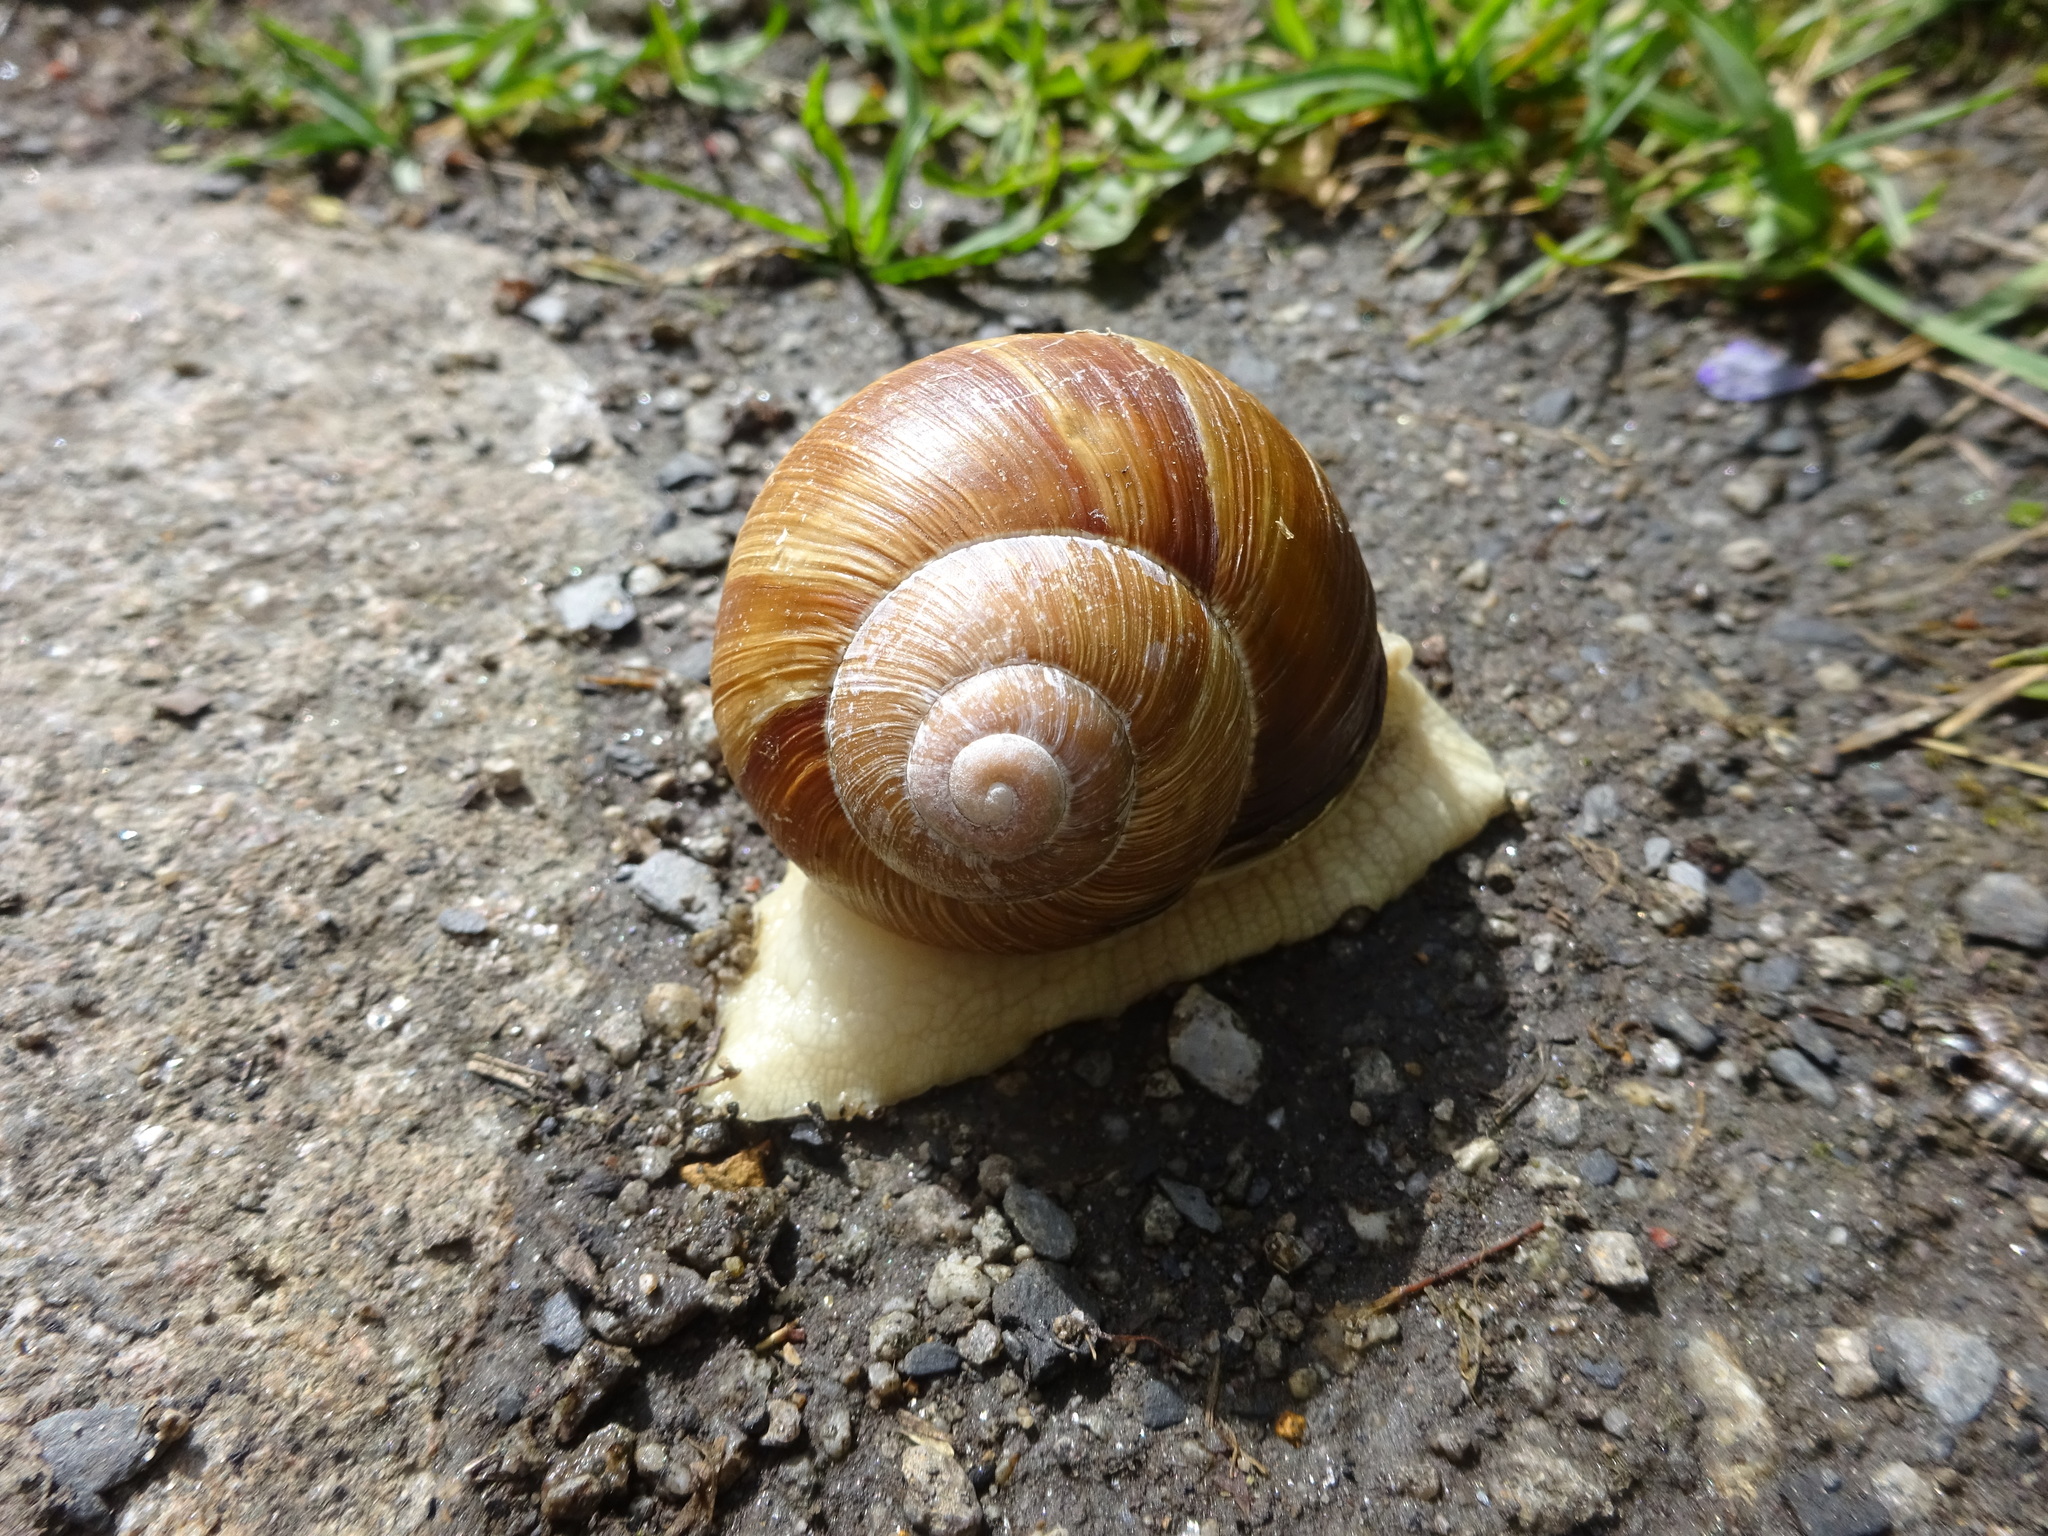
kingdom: Animalia
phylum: Mollusca
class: Gastropoda
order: Stylommatophora
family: Helicidae
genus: Helix
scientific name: Helix pomatia
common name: Roman snail
